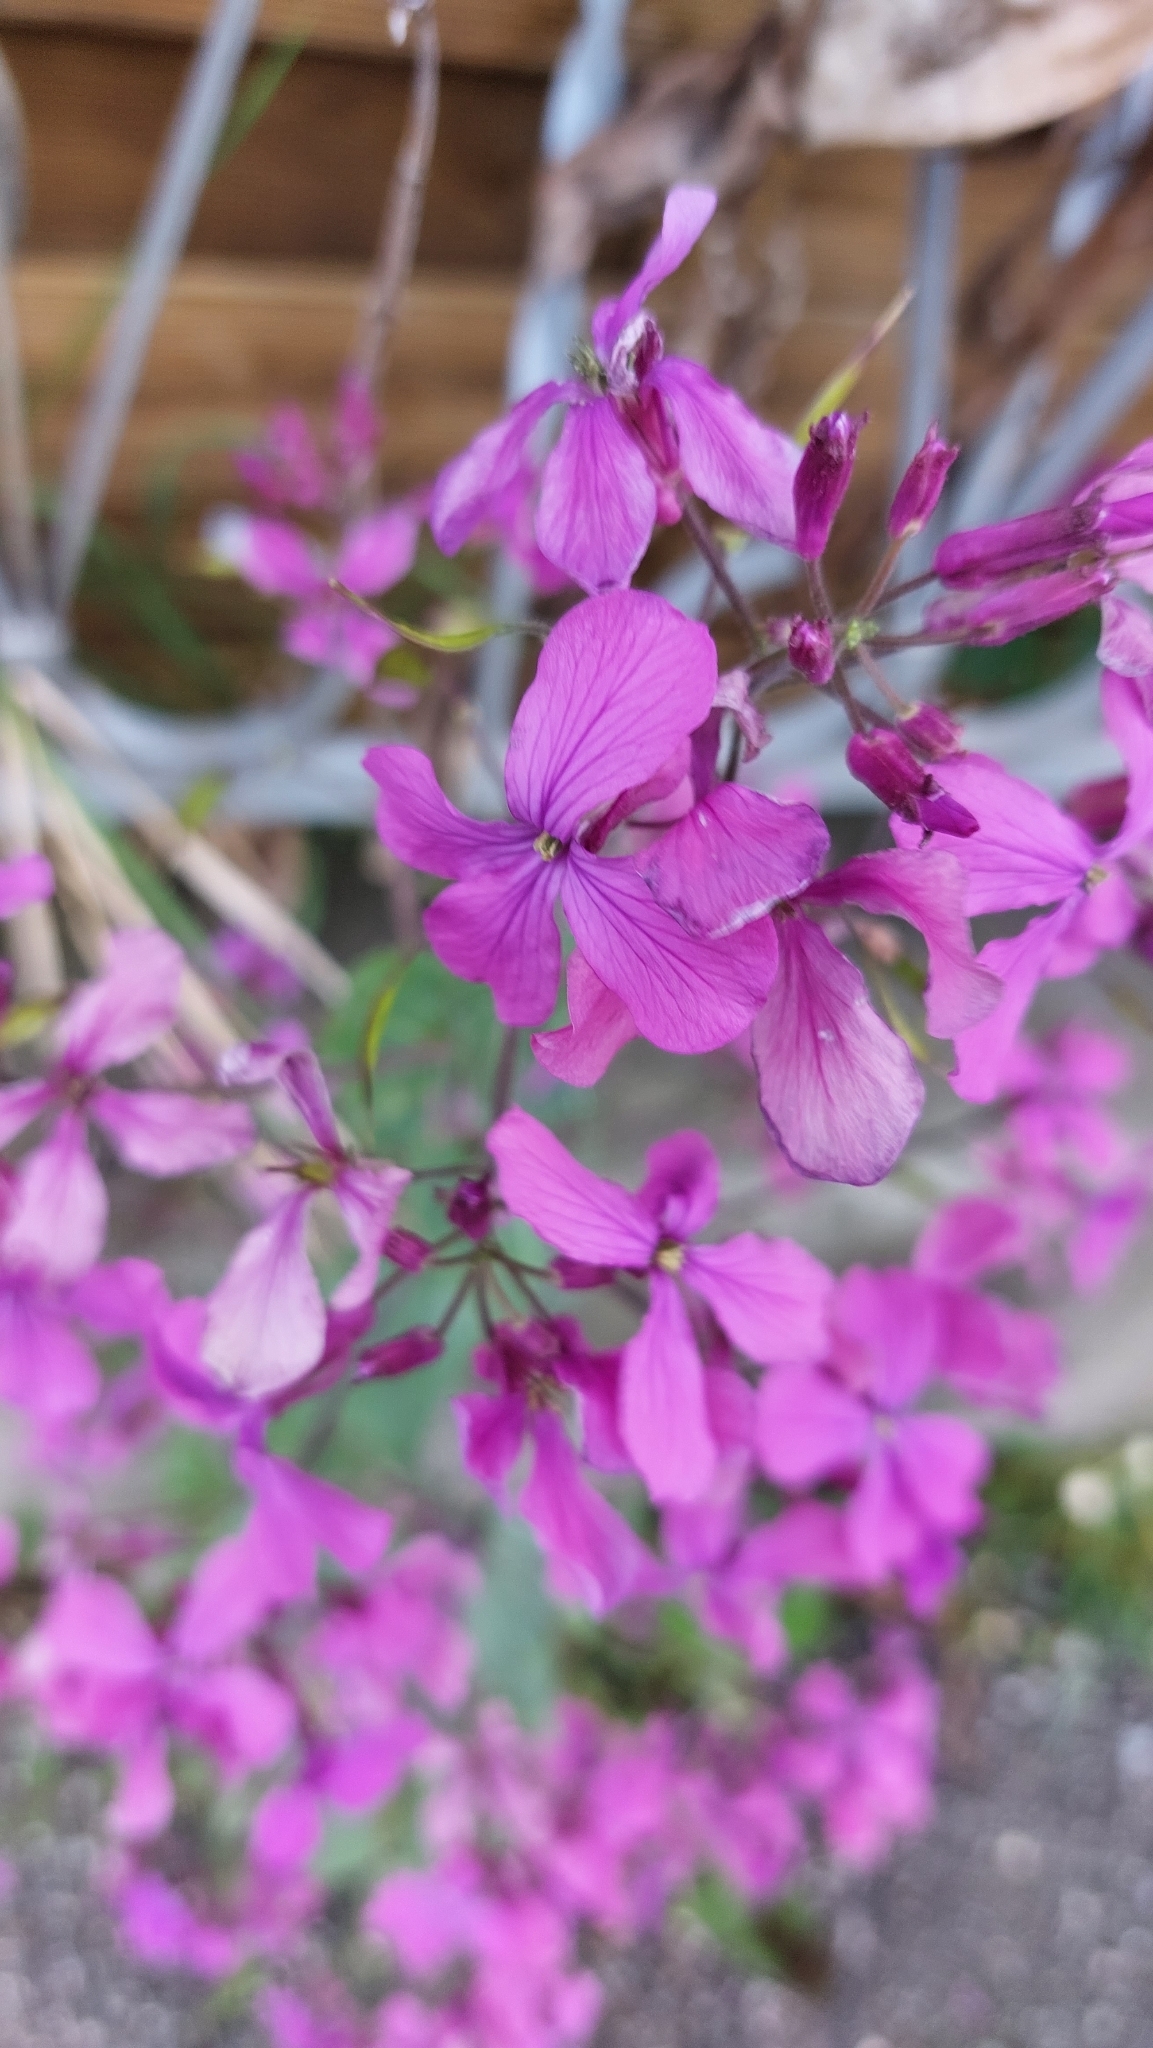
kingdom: Plantae
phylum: Tracheophyta
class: Magnoliopsida
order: Brassicales
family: Brassicaceae
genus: Lunaria
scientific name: Lunaria annua
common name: Honesty
